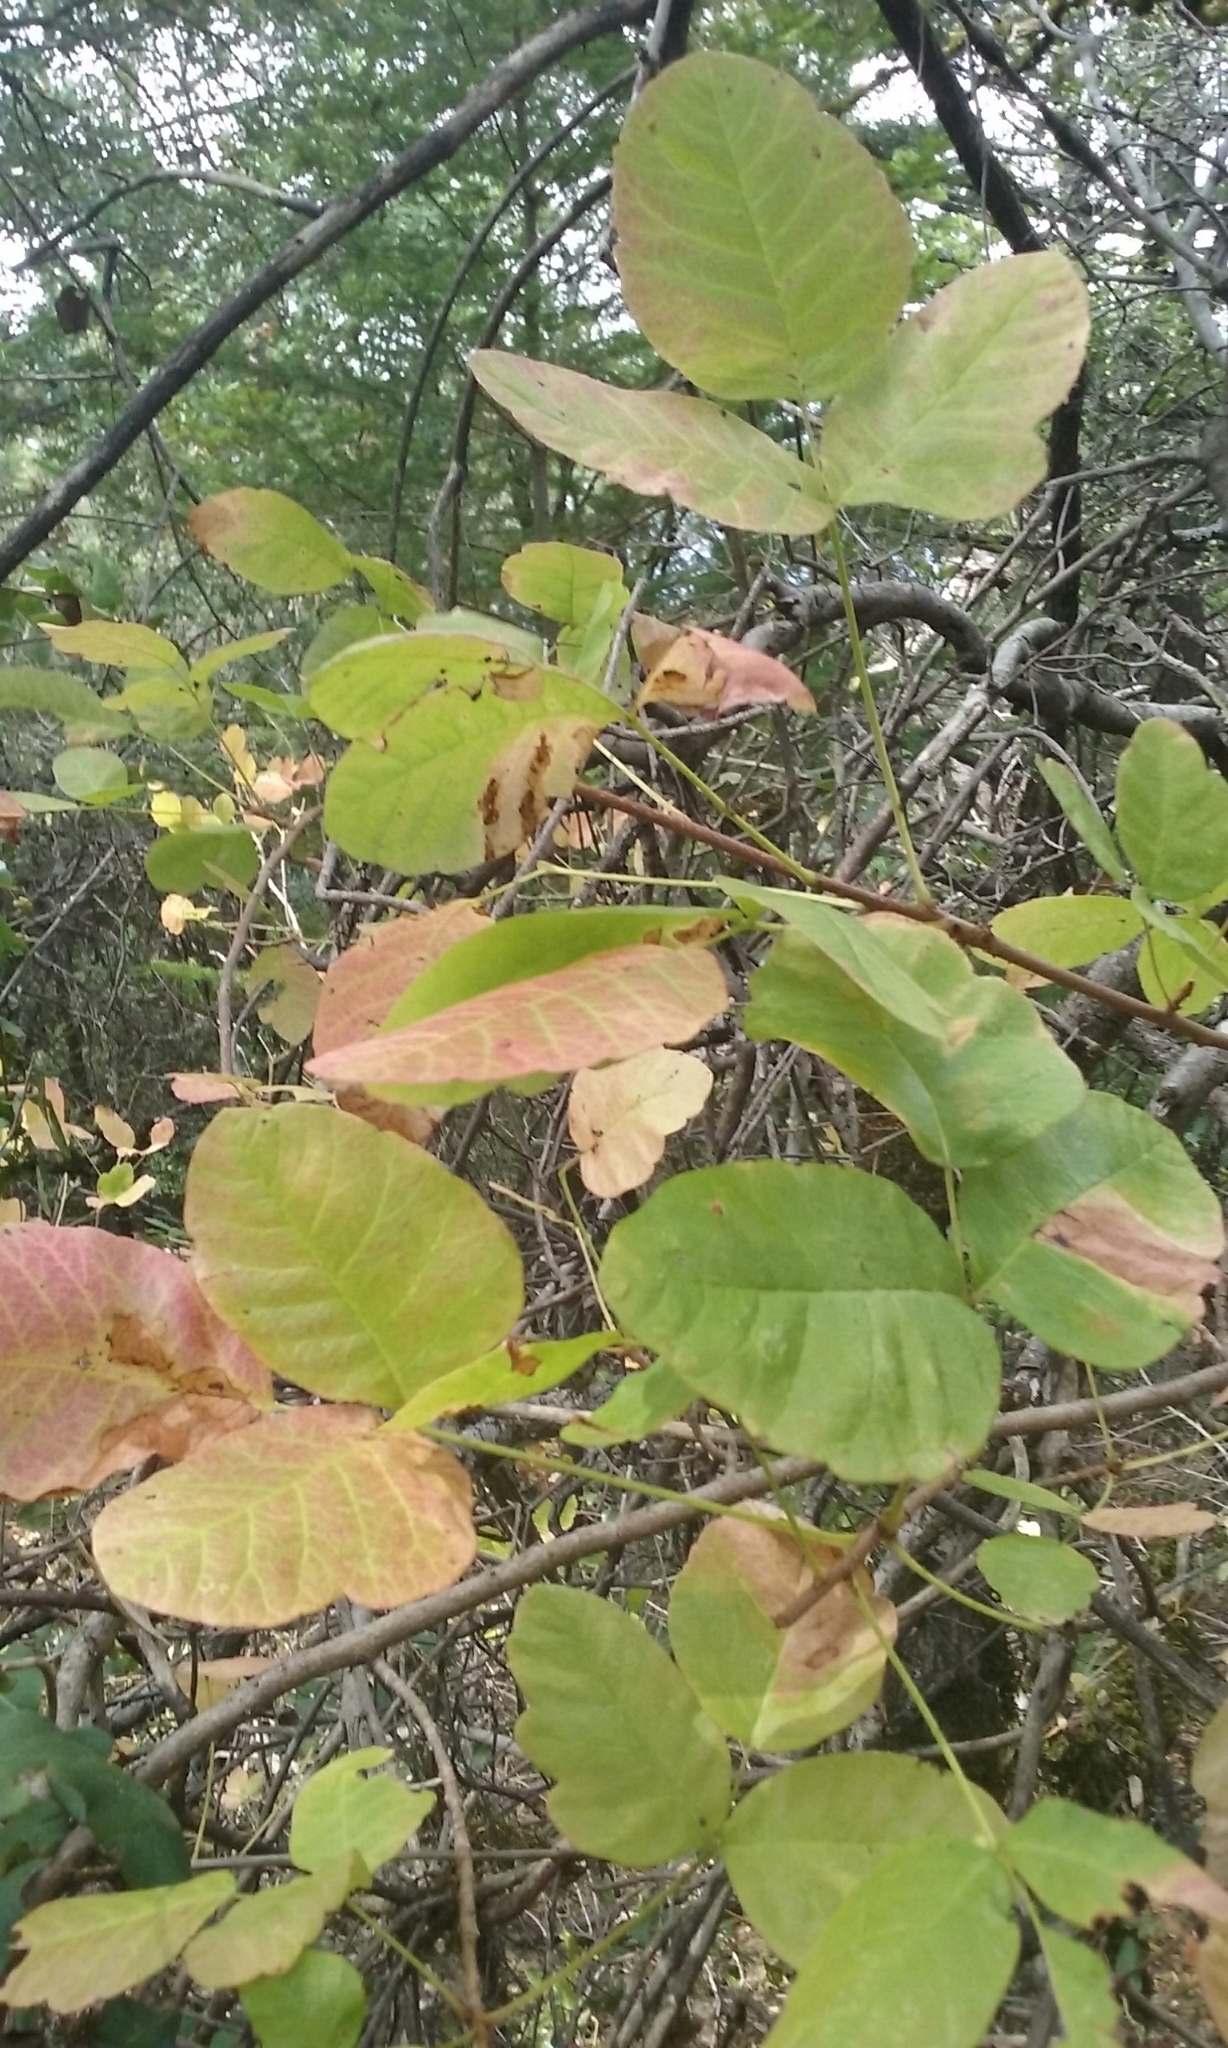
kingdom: Plantae
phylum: Tracheophyta
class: Magnoliopsida
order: Sapindales
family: Anacardiaceae
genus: Toxicodendron
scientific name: Toxicodendron diversilobum
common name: Pacific poison-oak
